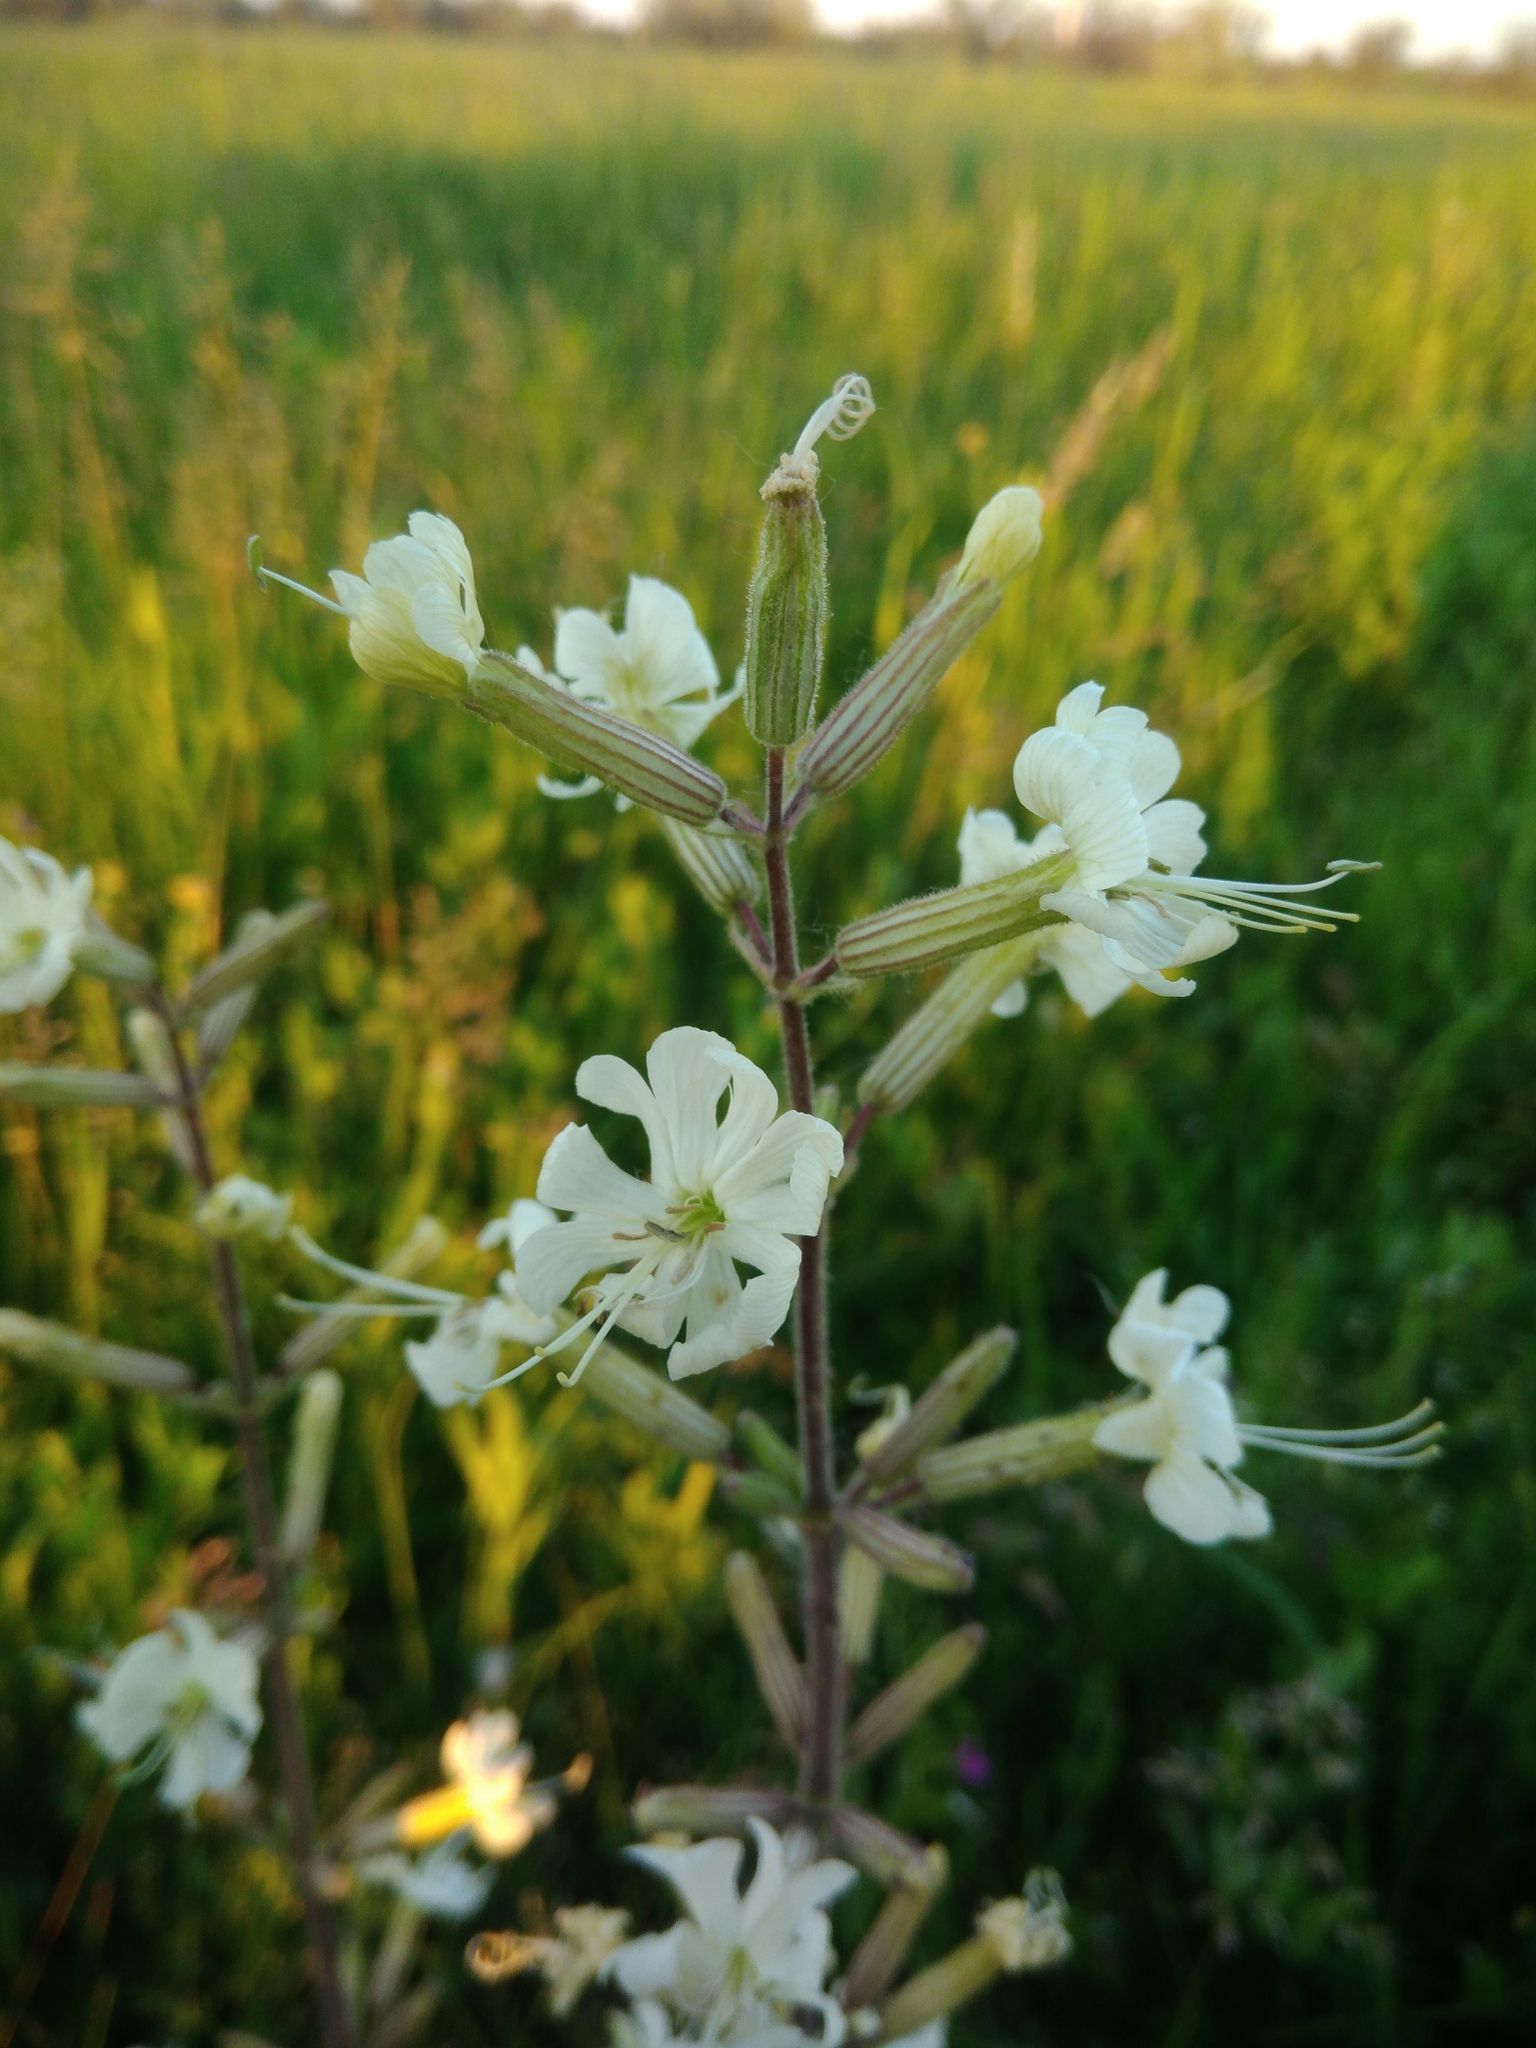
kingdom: Plantae
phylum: Tracheophyta
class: Magnoliopsida
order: Caryophyllales
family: Caryophyllaceae
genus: Silene
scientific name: Silene viscosa
